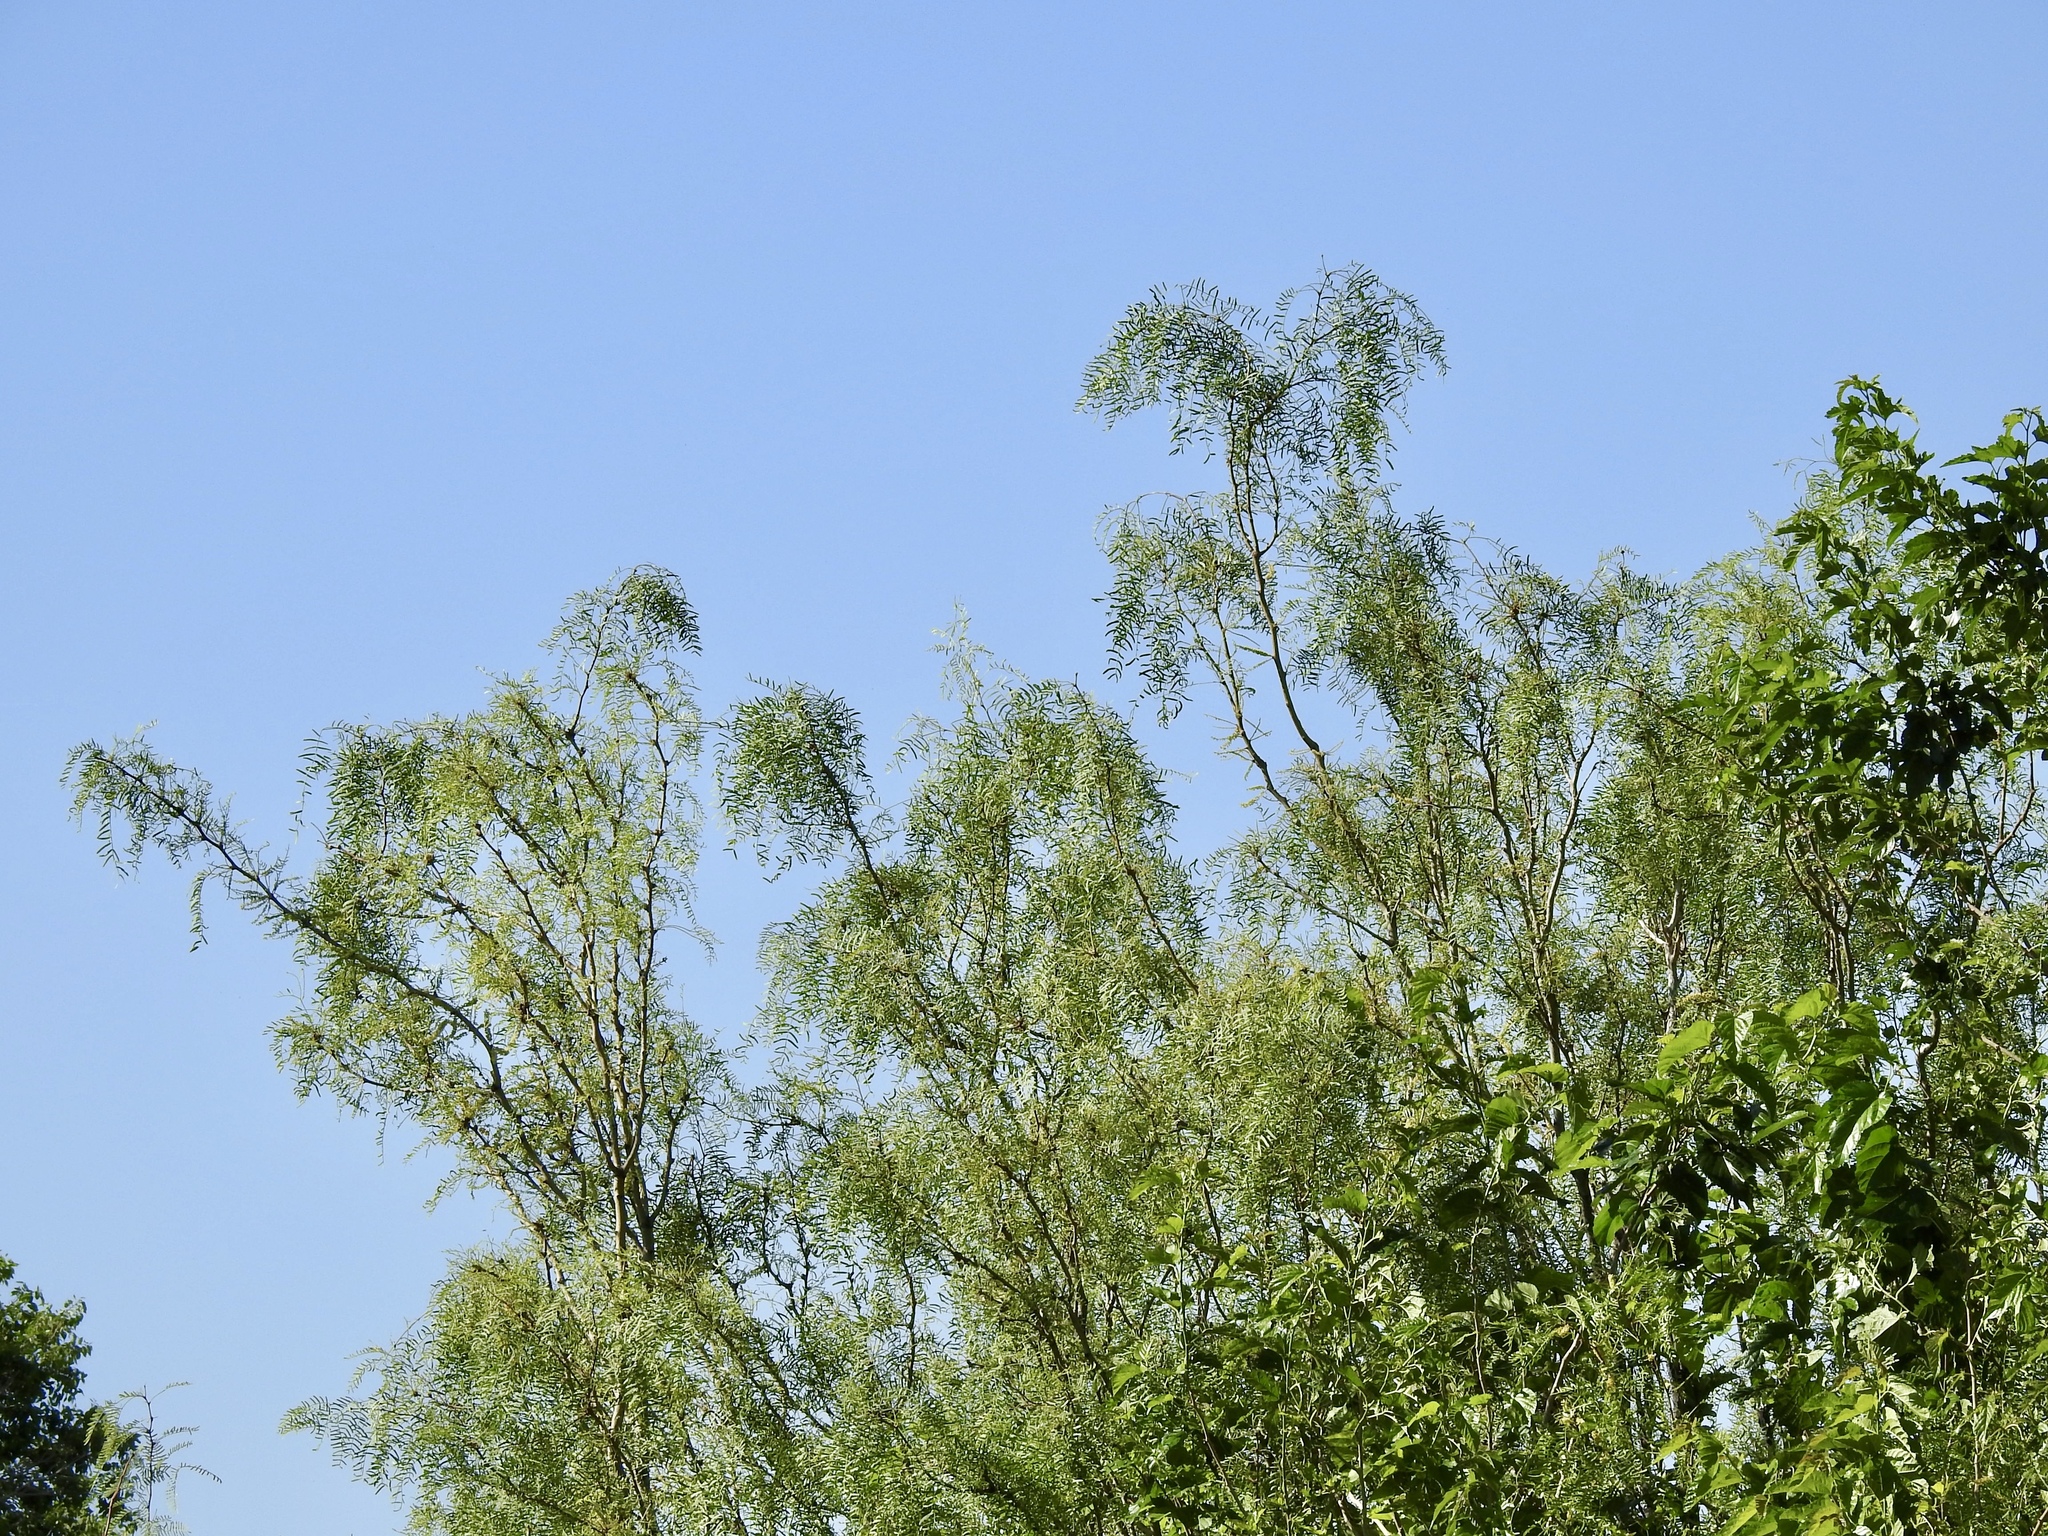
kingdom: Plantae
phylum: Tracheophyta
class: Magnoliopsida
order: Fabales
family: Fabaceae
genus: Prosopis
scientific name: Prosopis glandulosa
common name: Honey mesquite
